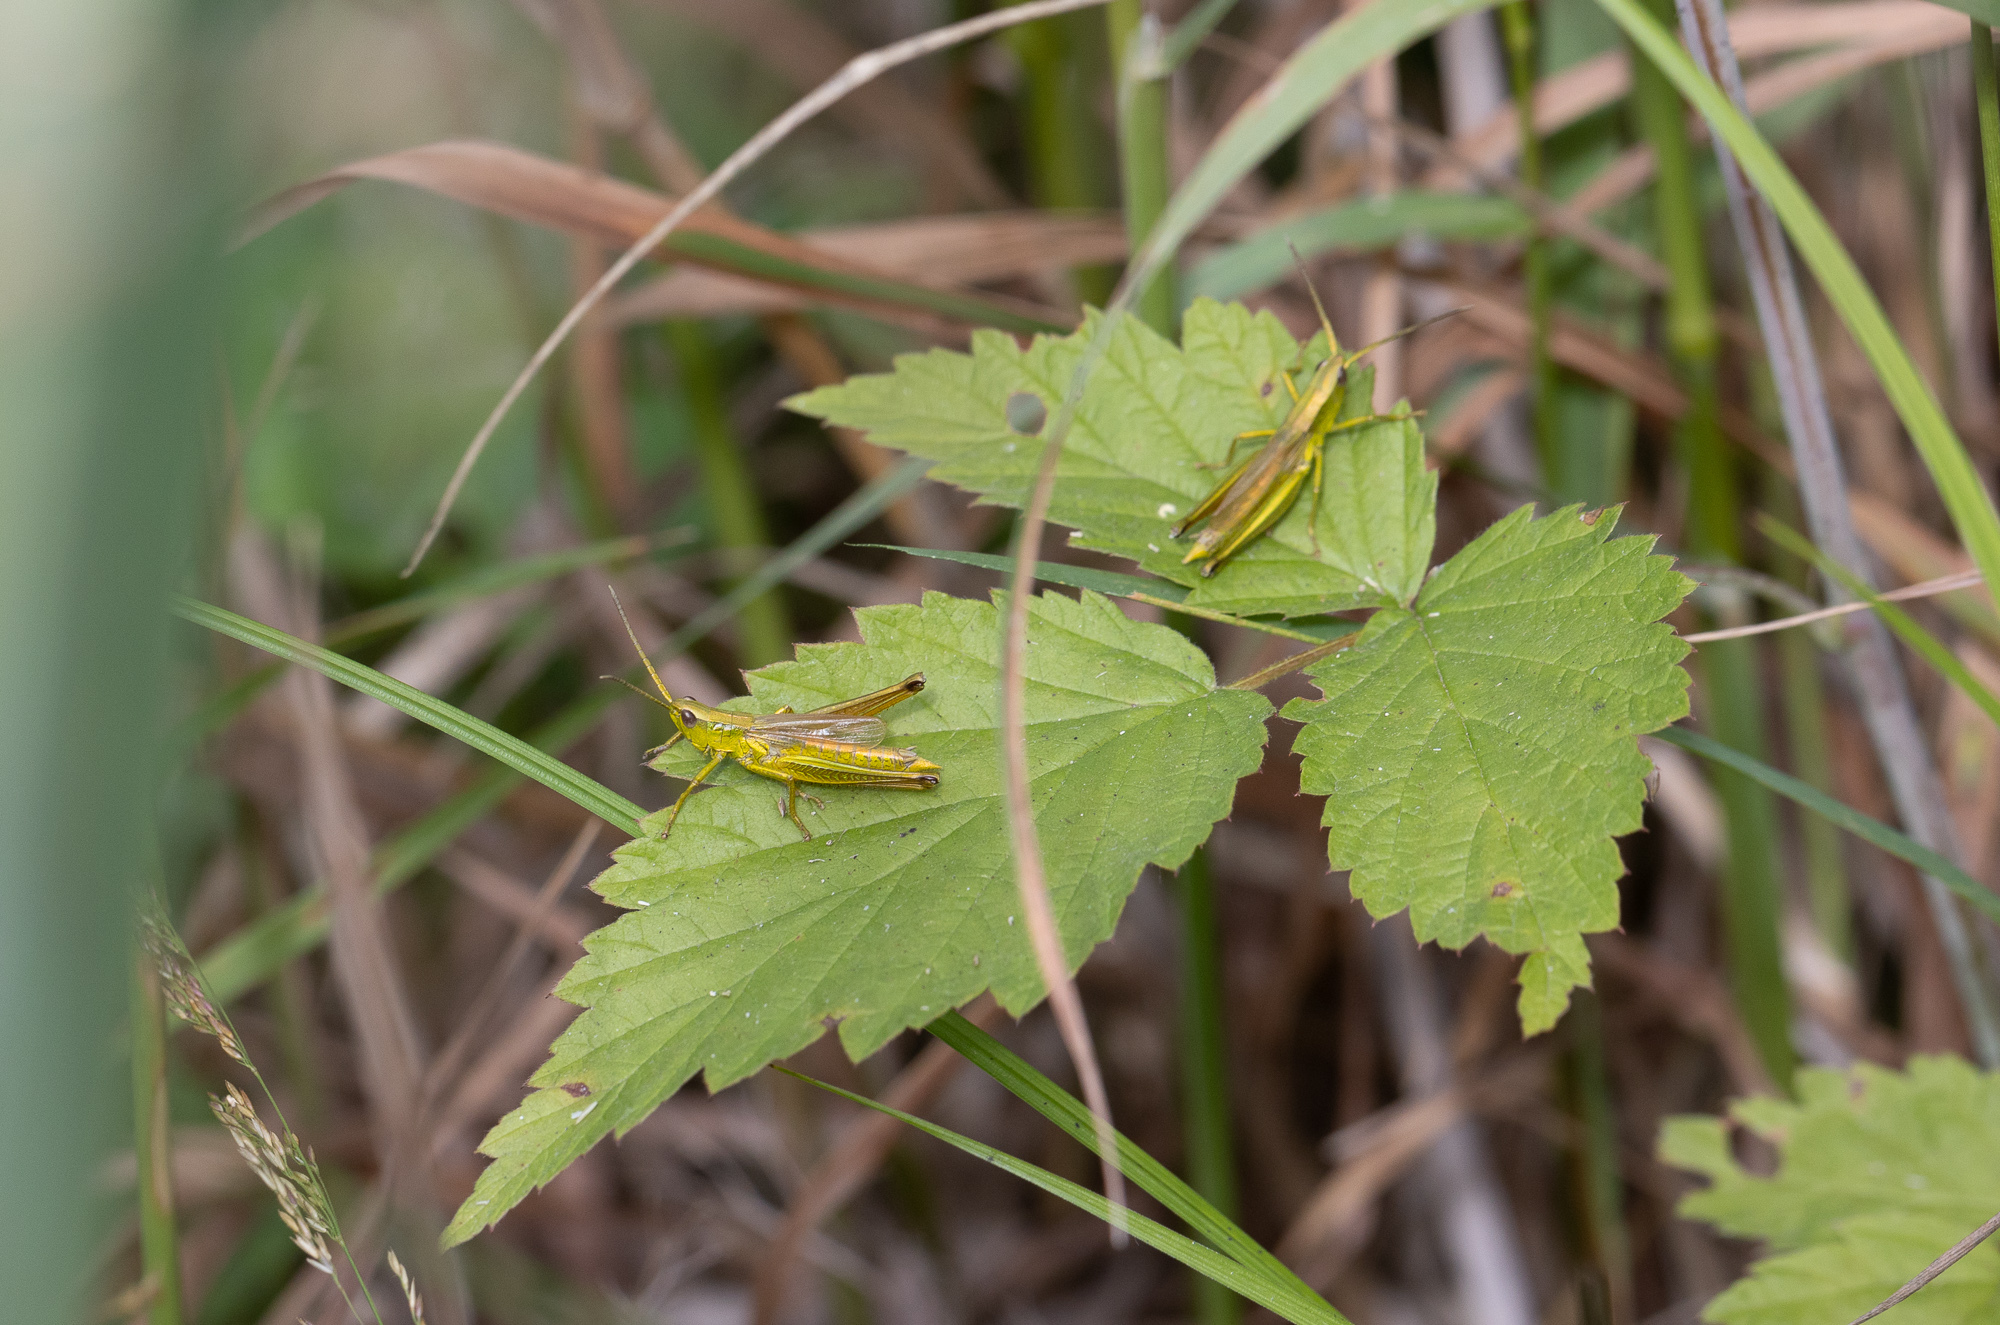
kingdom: Animalia
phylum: Arthropoda
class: Insecta
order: Orthoptera
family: Acrididae
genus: Chrysochraon
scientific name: Chrysochraon dispar
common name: Large gold grasshopper
